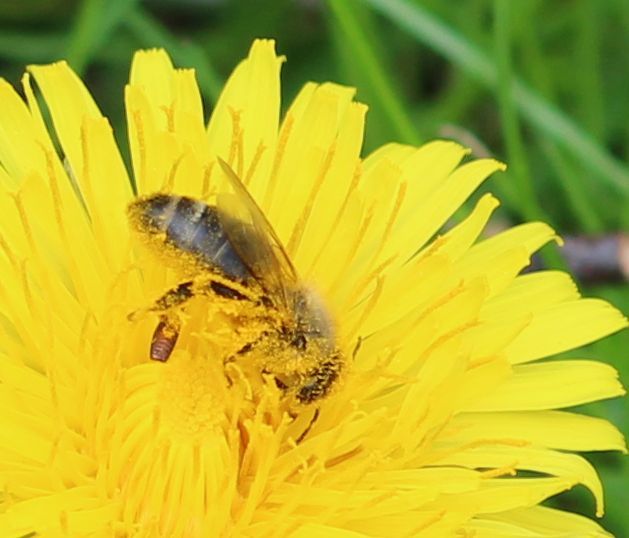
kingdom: Animalia
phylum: Arthropoda
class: Insecta
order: Hymenoptera
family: Apidae
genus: Apis
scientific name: Apis mellifera
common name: Honey bee
